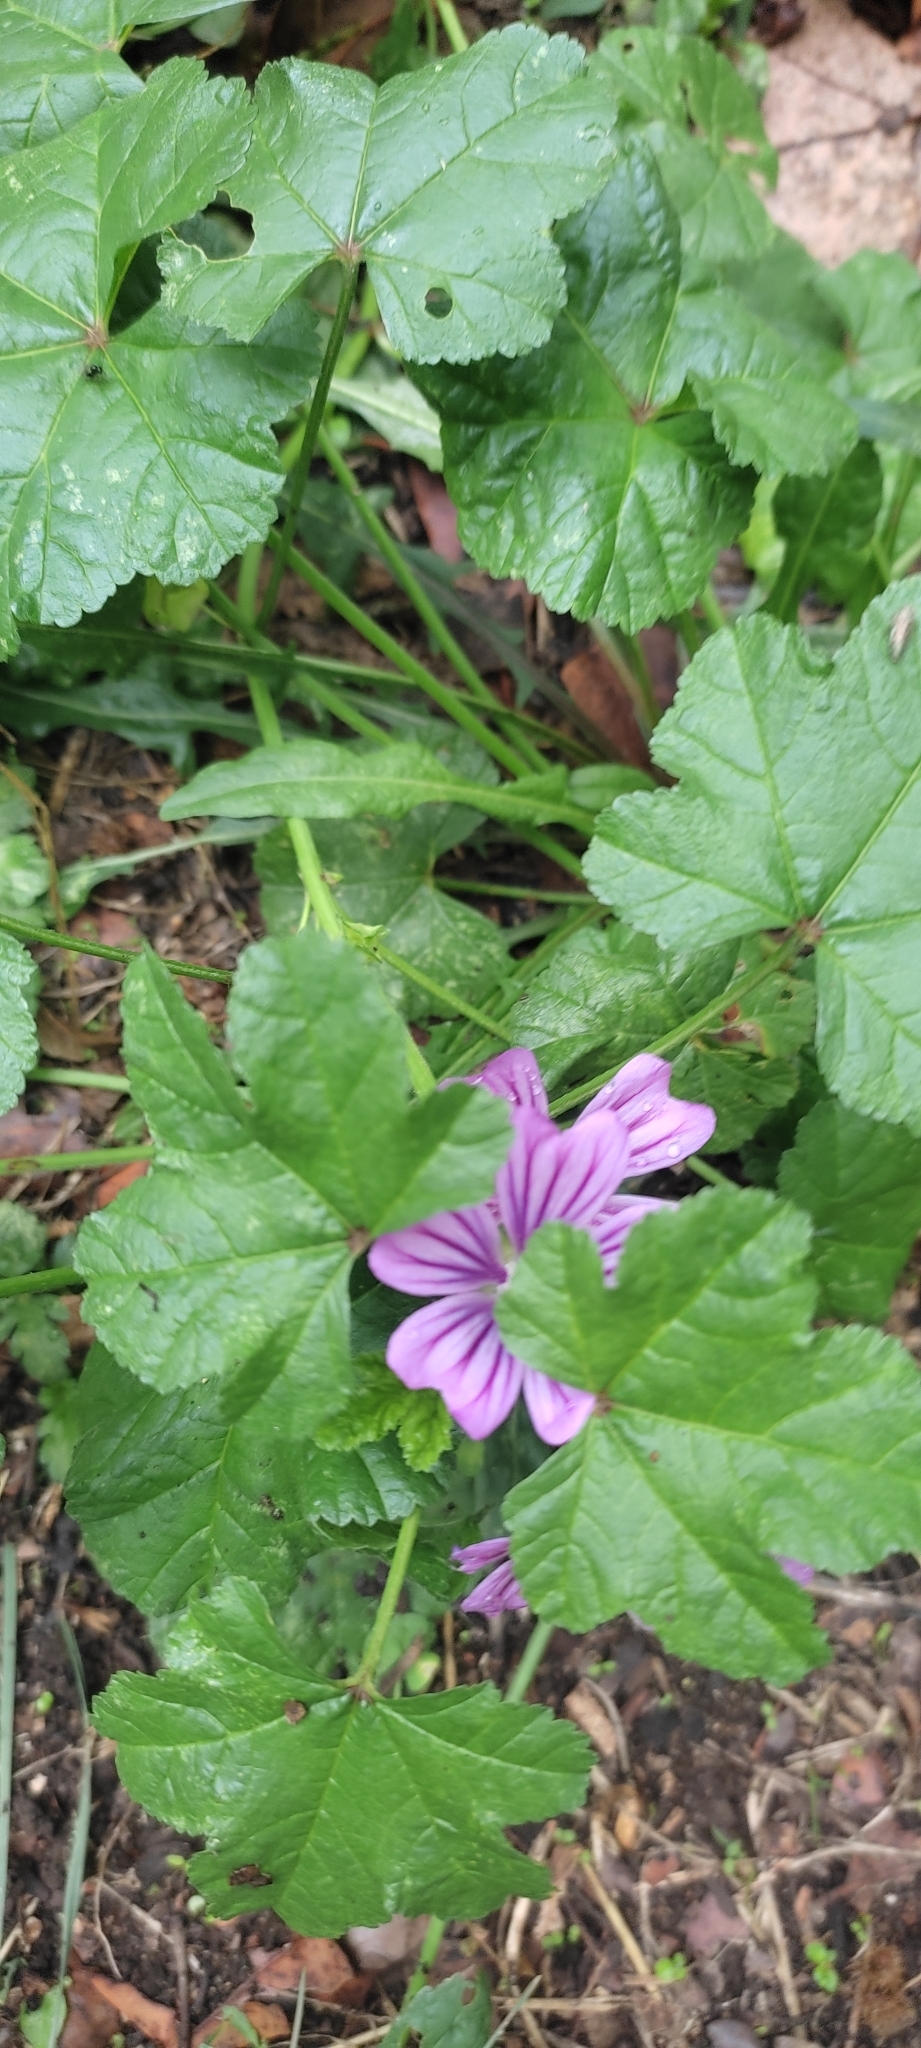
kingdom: Plantae
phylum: Tracheophyta
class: Magnoliopsida
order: Malvales
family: Malvaceae
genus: Malva
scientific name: Malva sylvestris
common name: Common mallow
